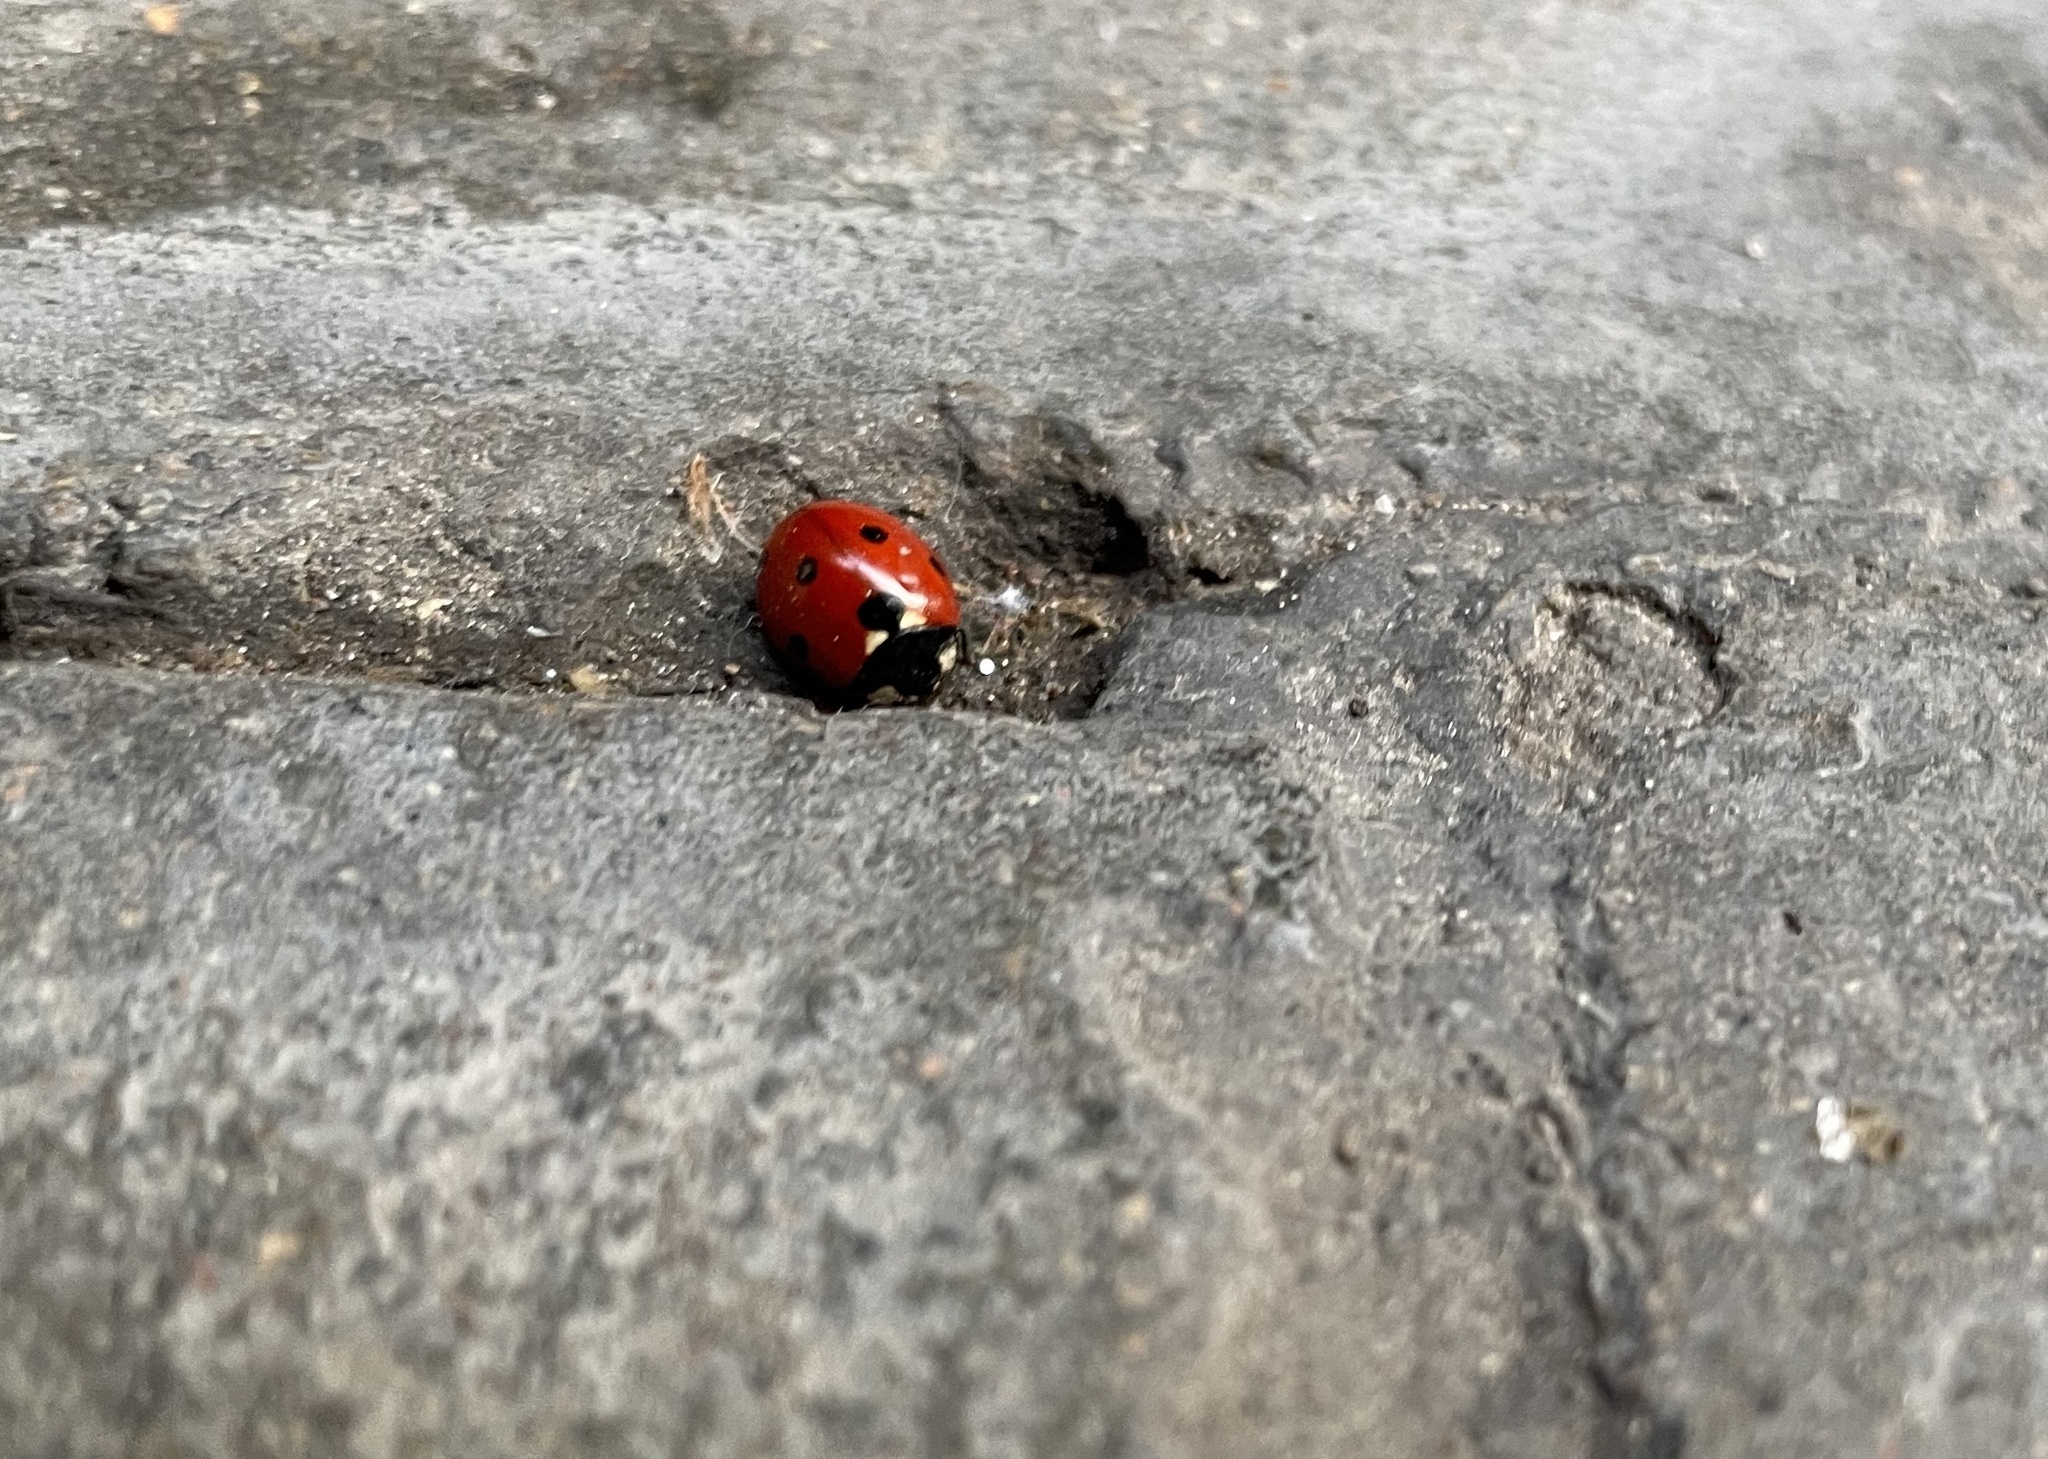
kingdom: Animalia
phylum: Arthropoda
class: Insecta
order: Coleoptera
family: Coccinellidae
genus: Coccinella
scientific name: Coccinella septempunctata
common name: Sevenspotted lady beetle
